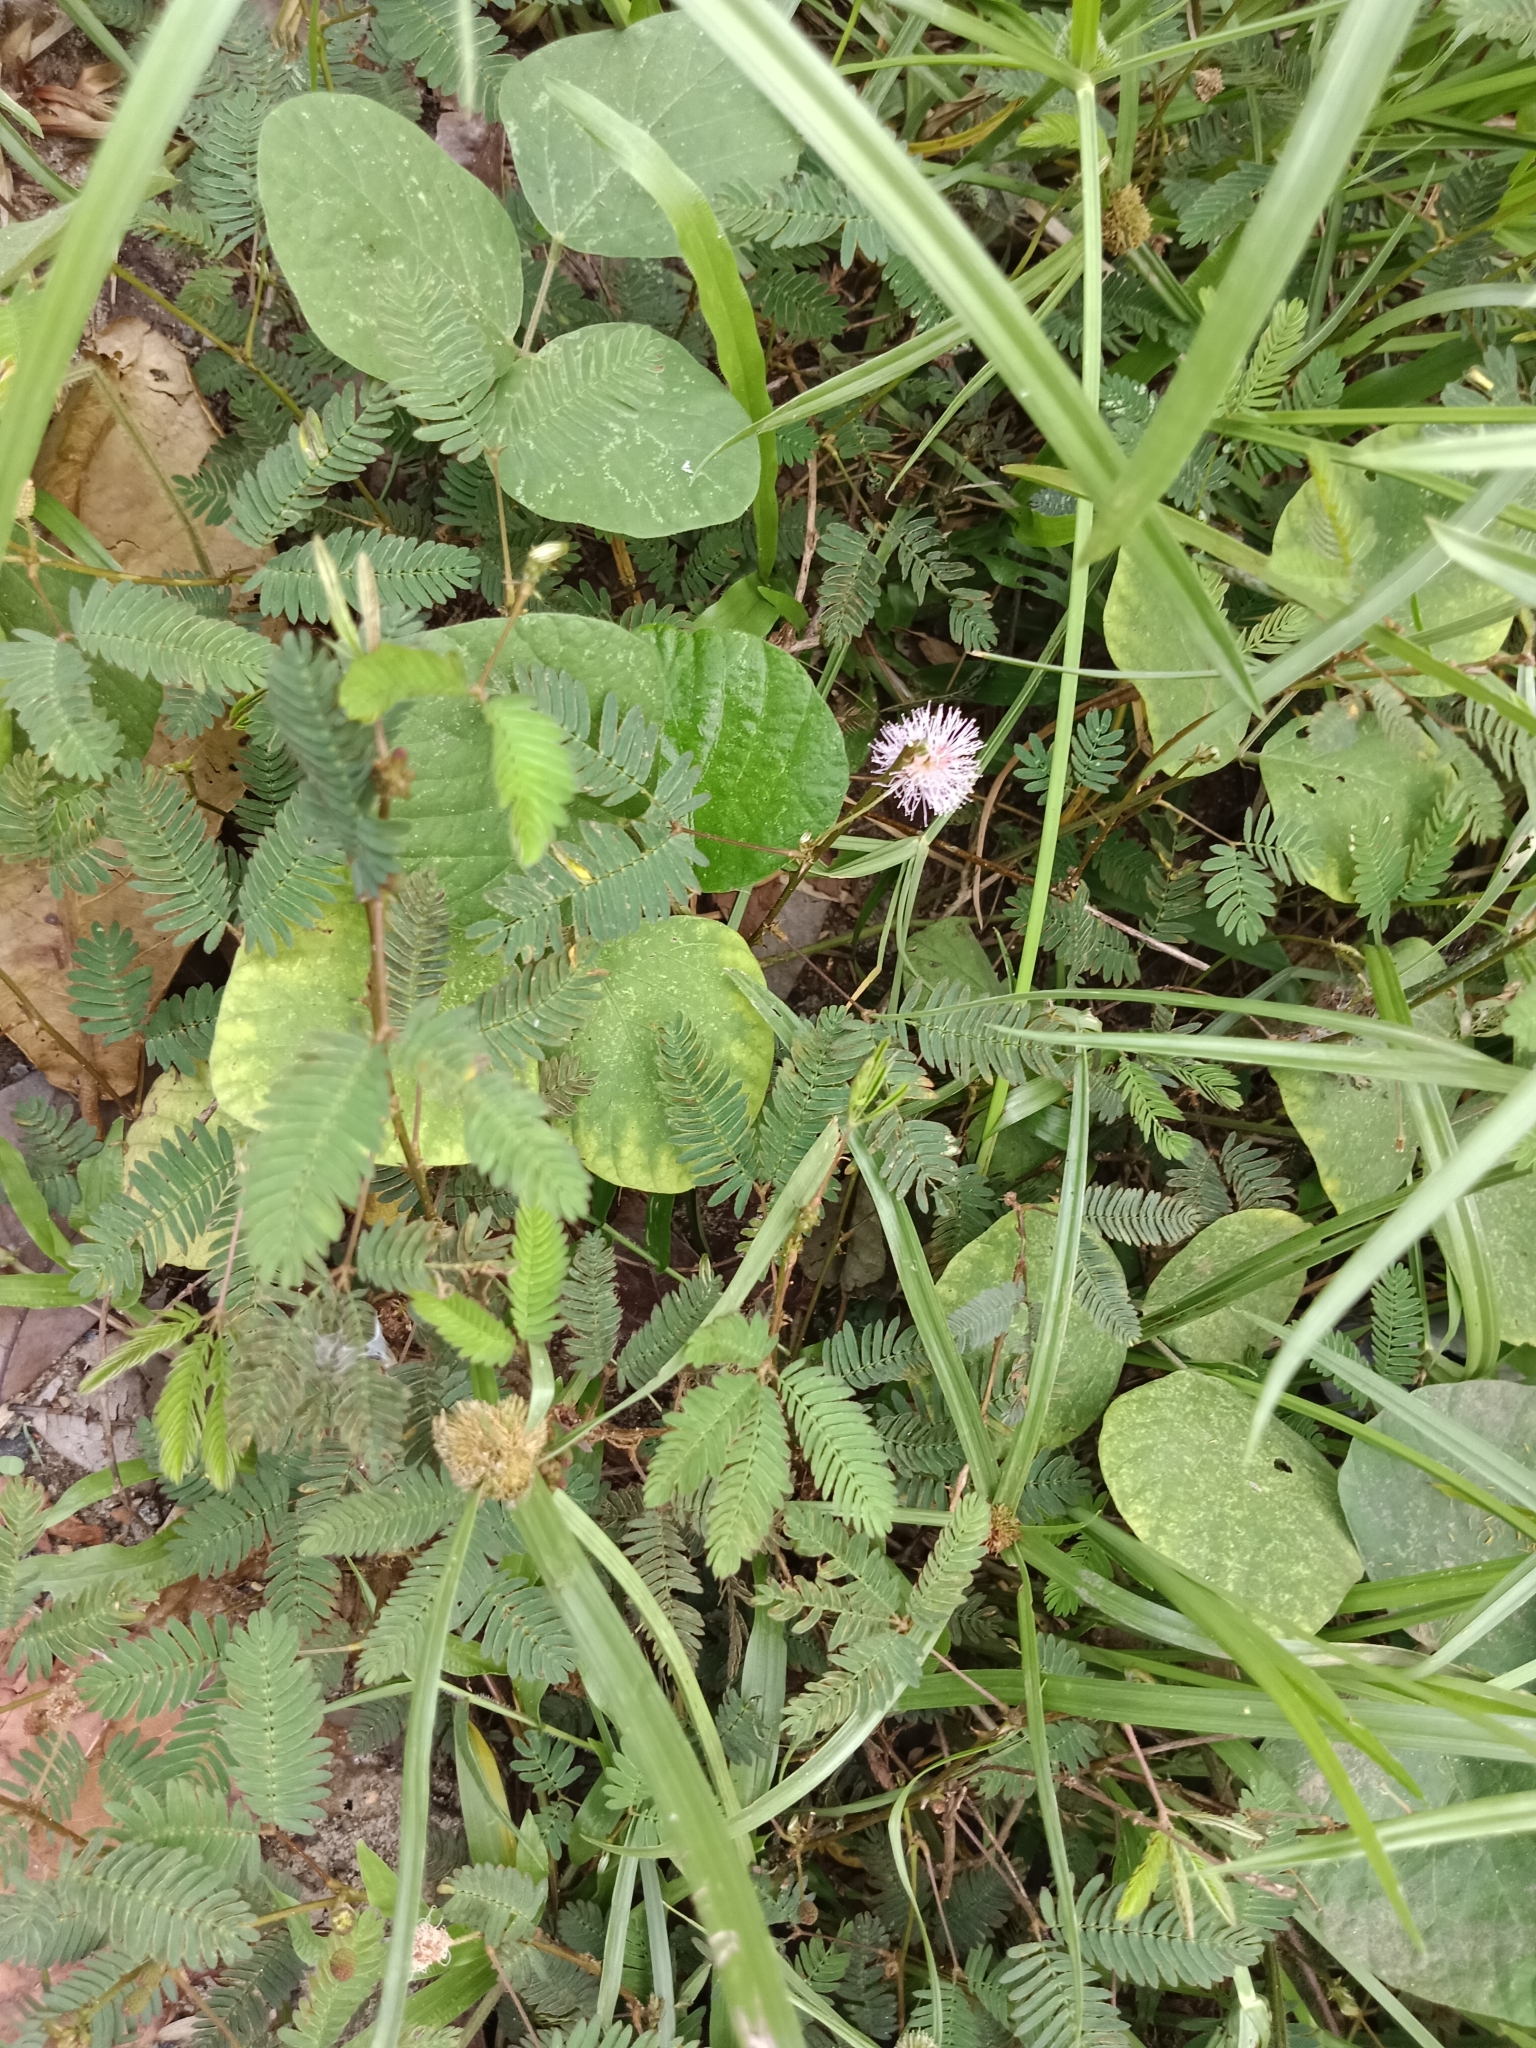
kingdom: Plantae
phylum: Tracheophyta
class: Magnoliopsida
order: Fabales
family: Fabaceae
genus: Mimosa
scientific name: Mimosa pudica
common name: Sensitive plant
